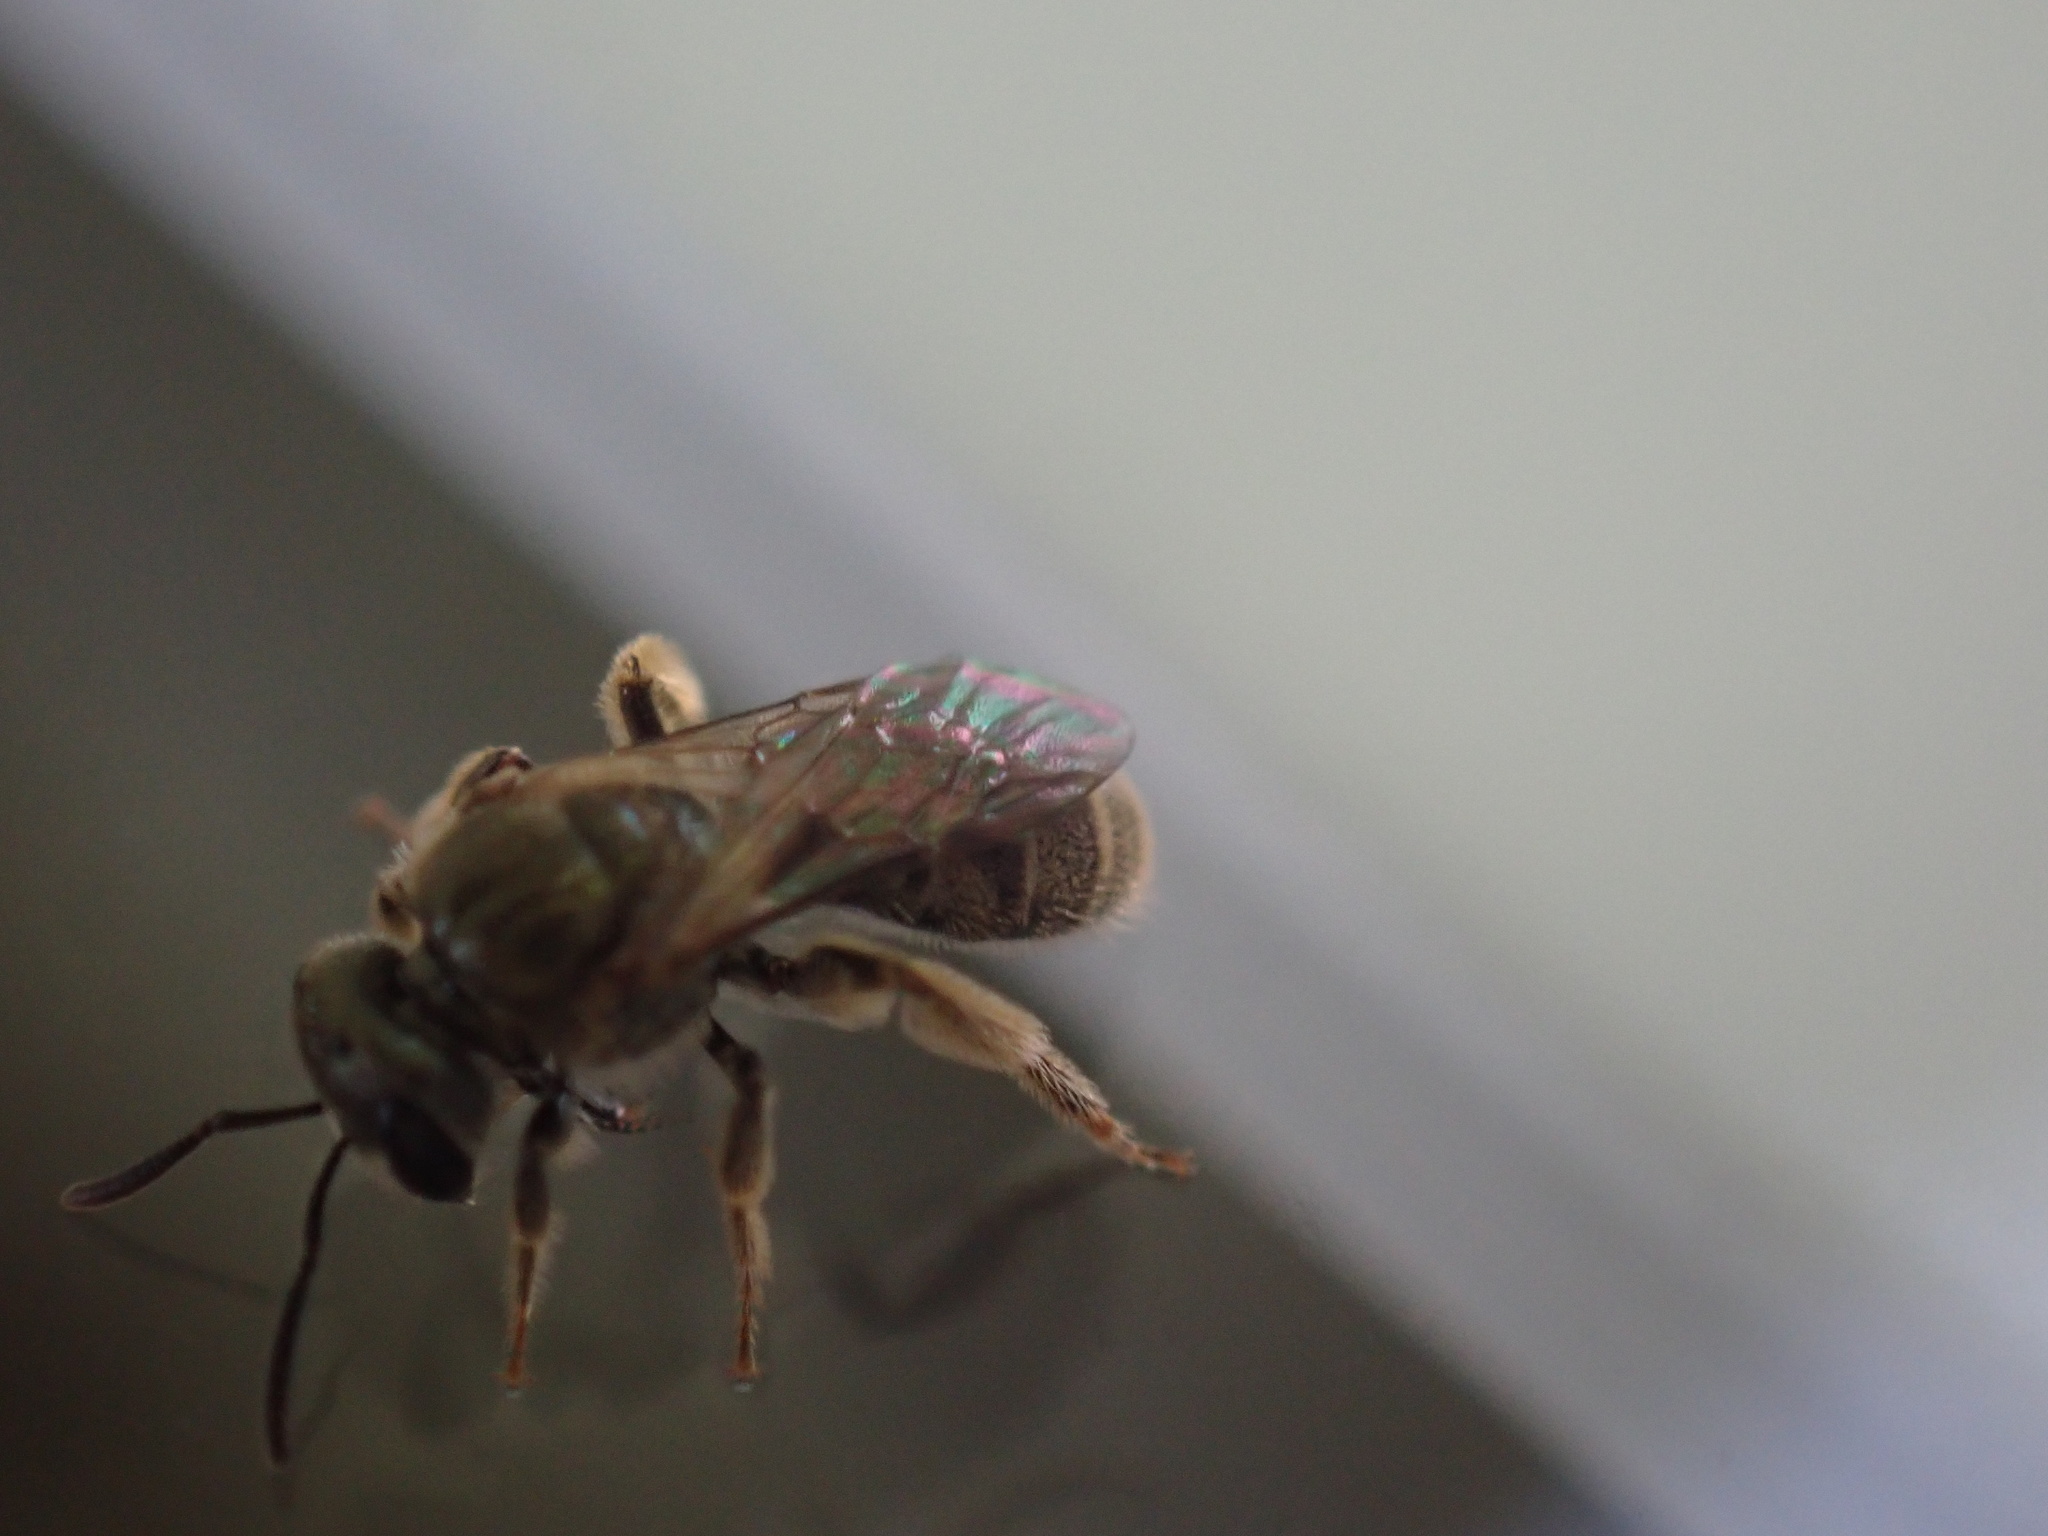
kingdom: Animalia
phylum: Arthropoda
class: Insecta
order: Hymenoptera
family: Halictidae
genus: Dialictus
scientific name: Dialictus
